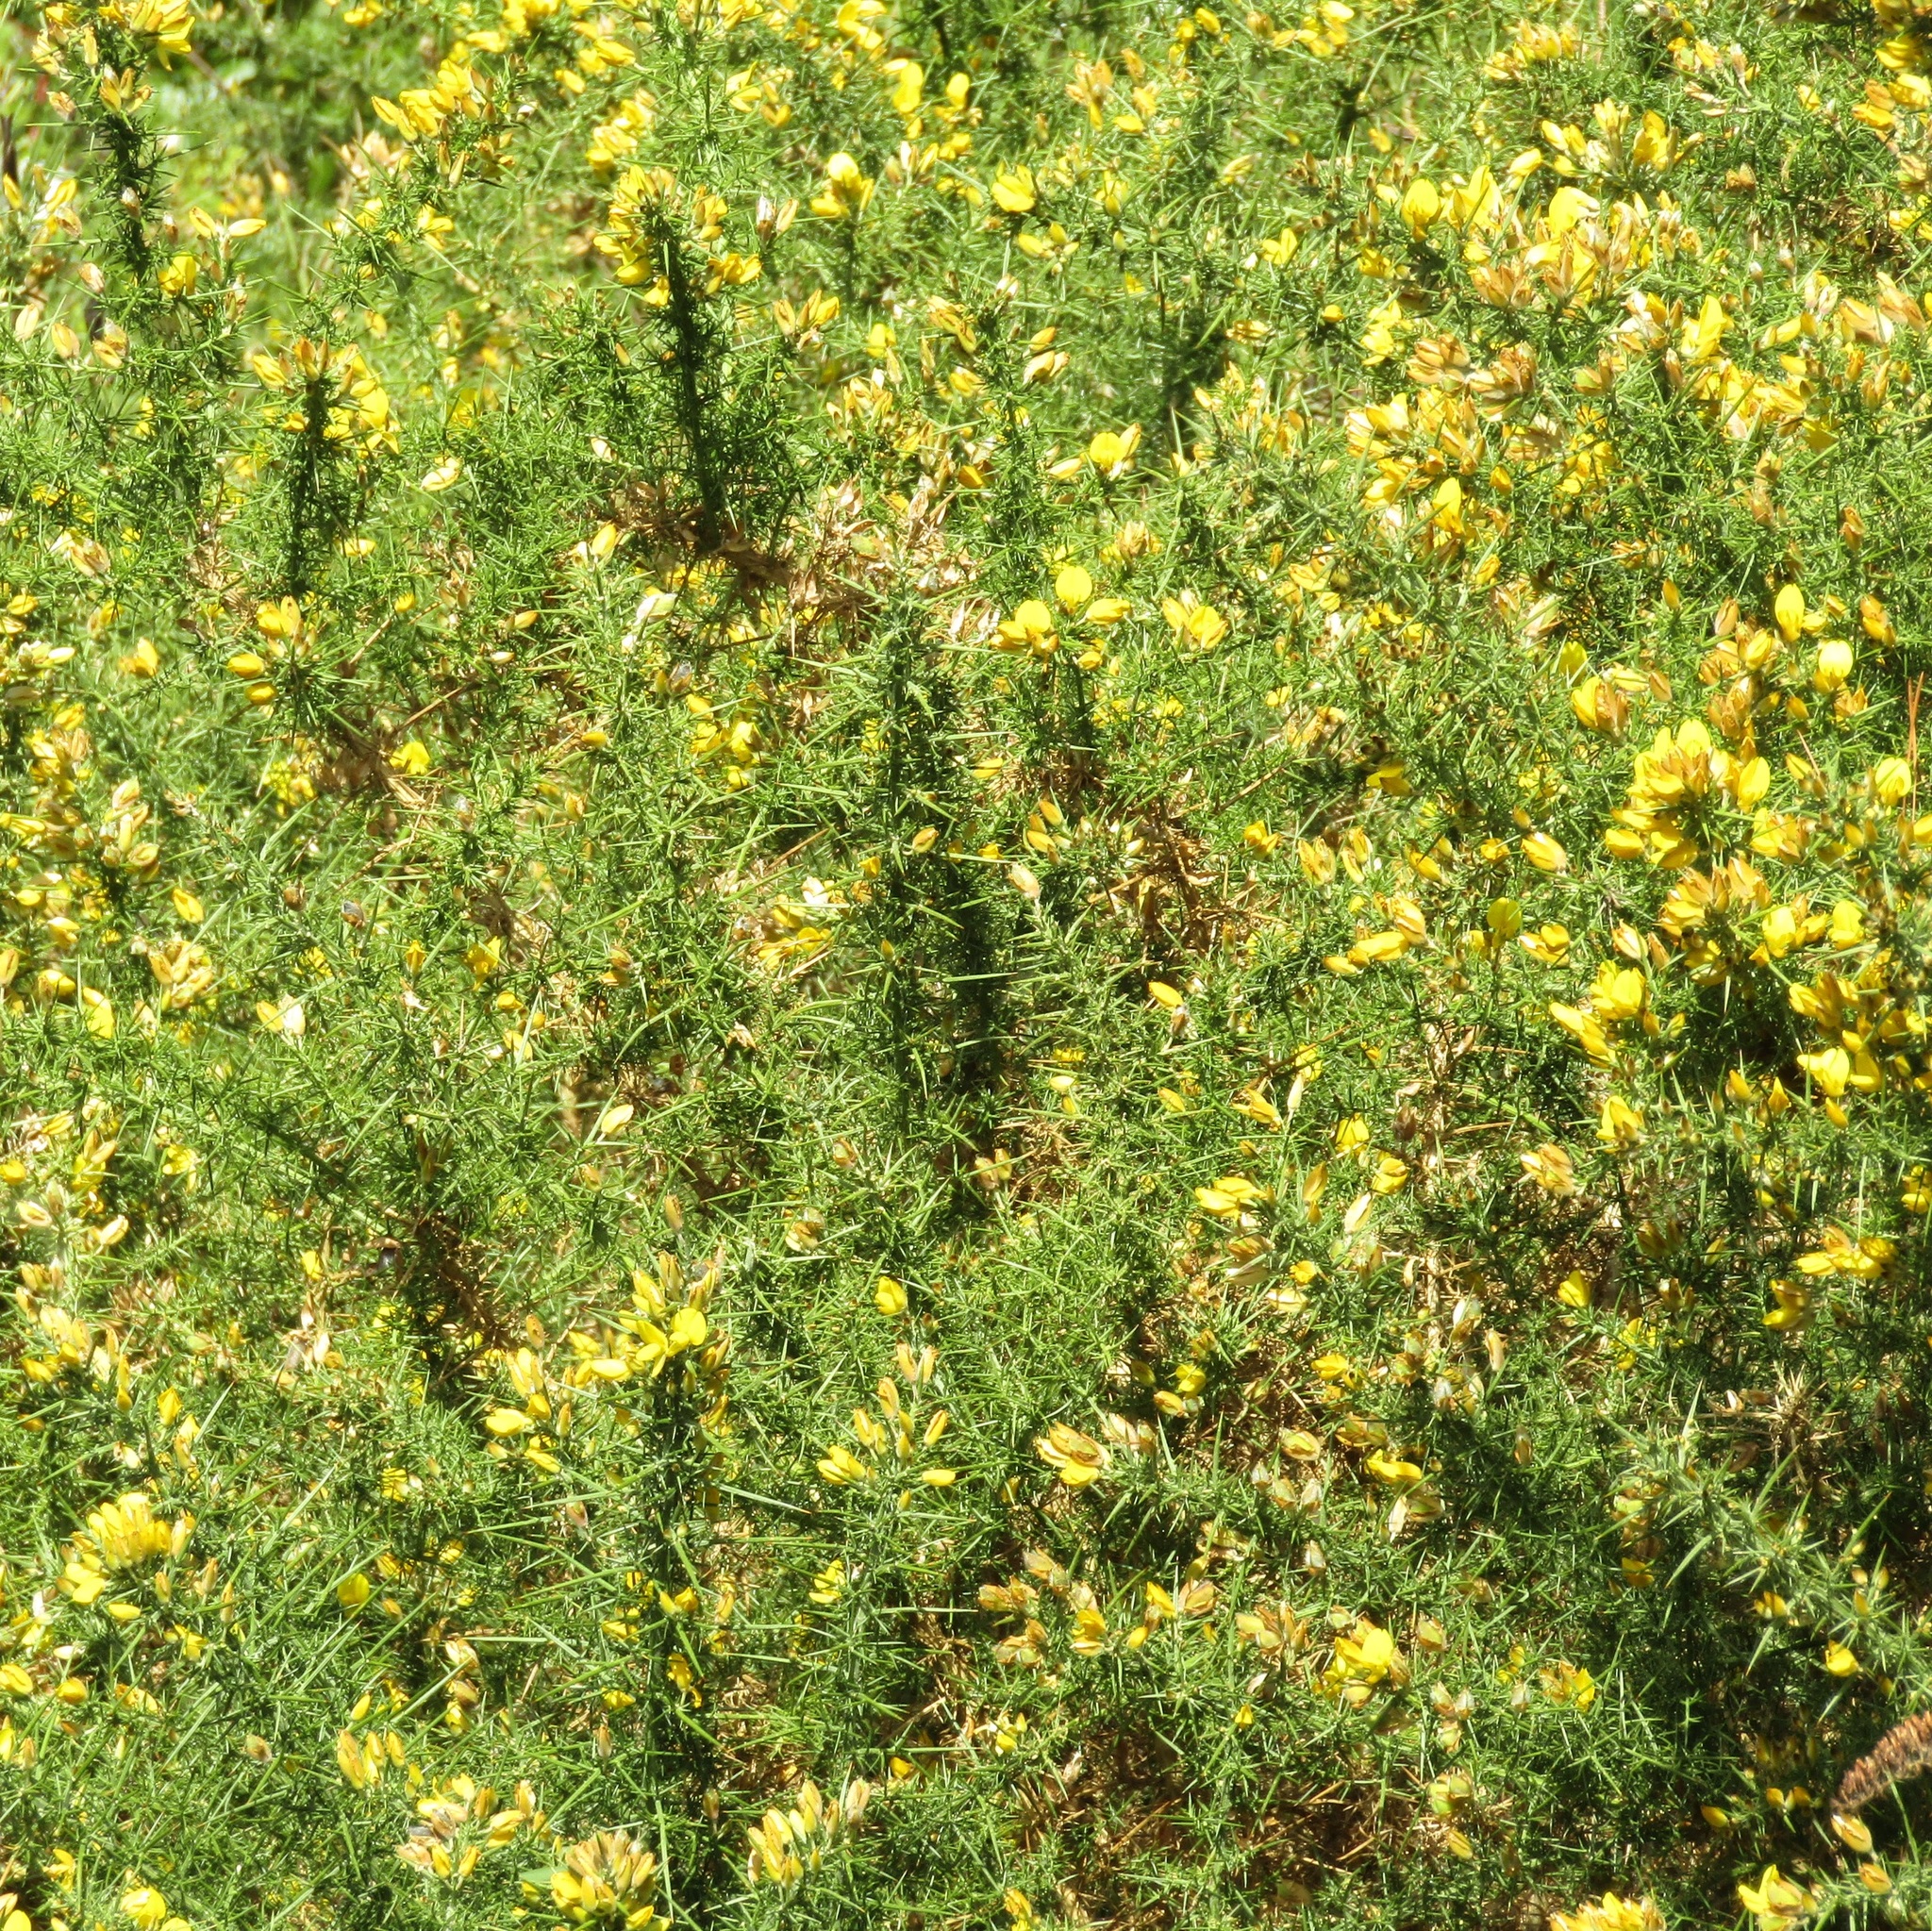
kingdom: Plantae
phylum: Tracheophyta
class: Magnoliopsida
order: Fabales
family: Fabaceae
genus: Ulex
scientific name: Ulex europaeus
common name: Common gorse
